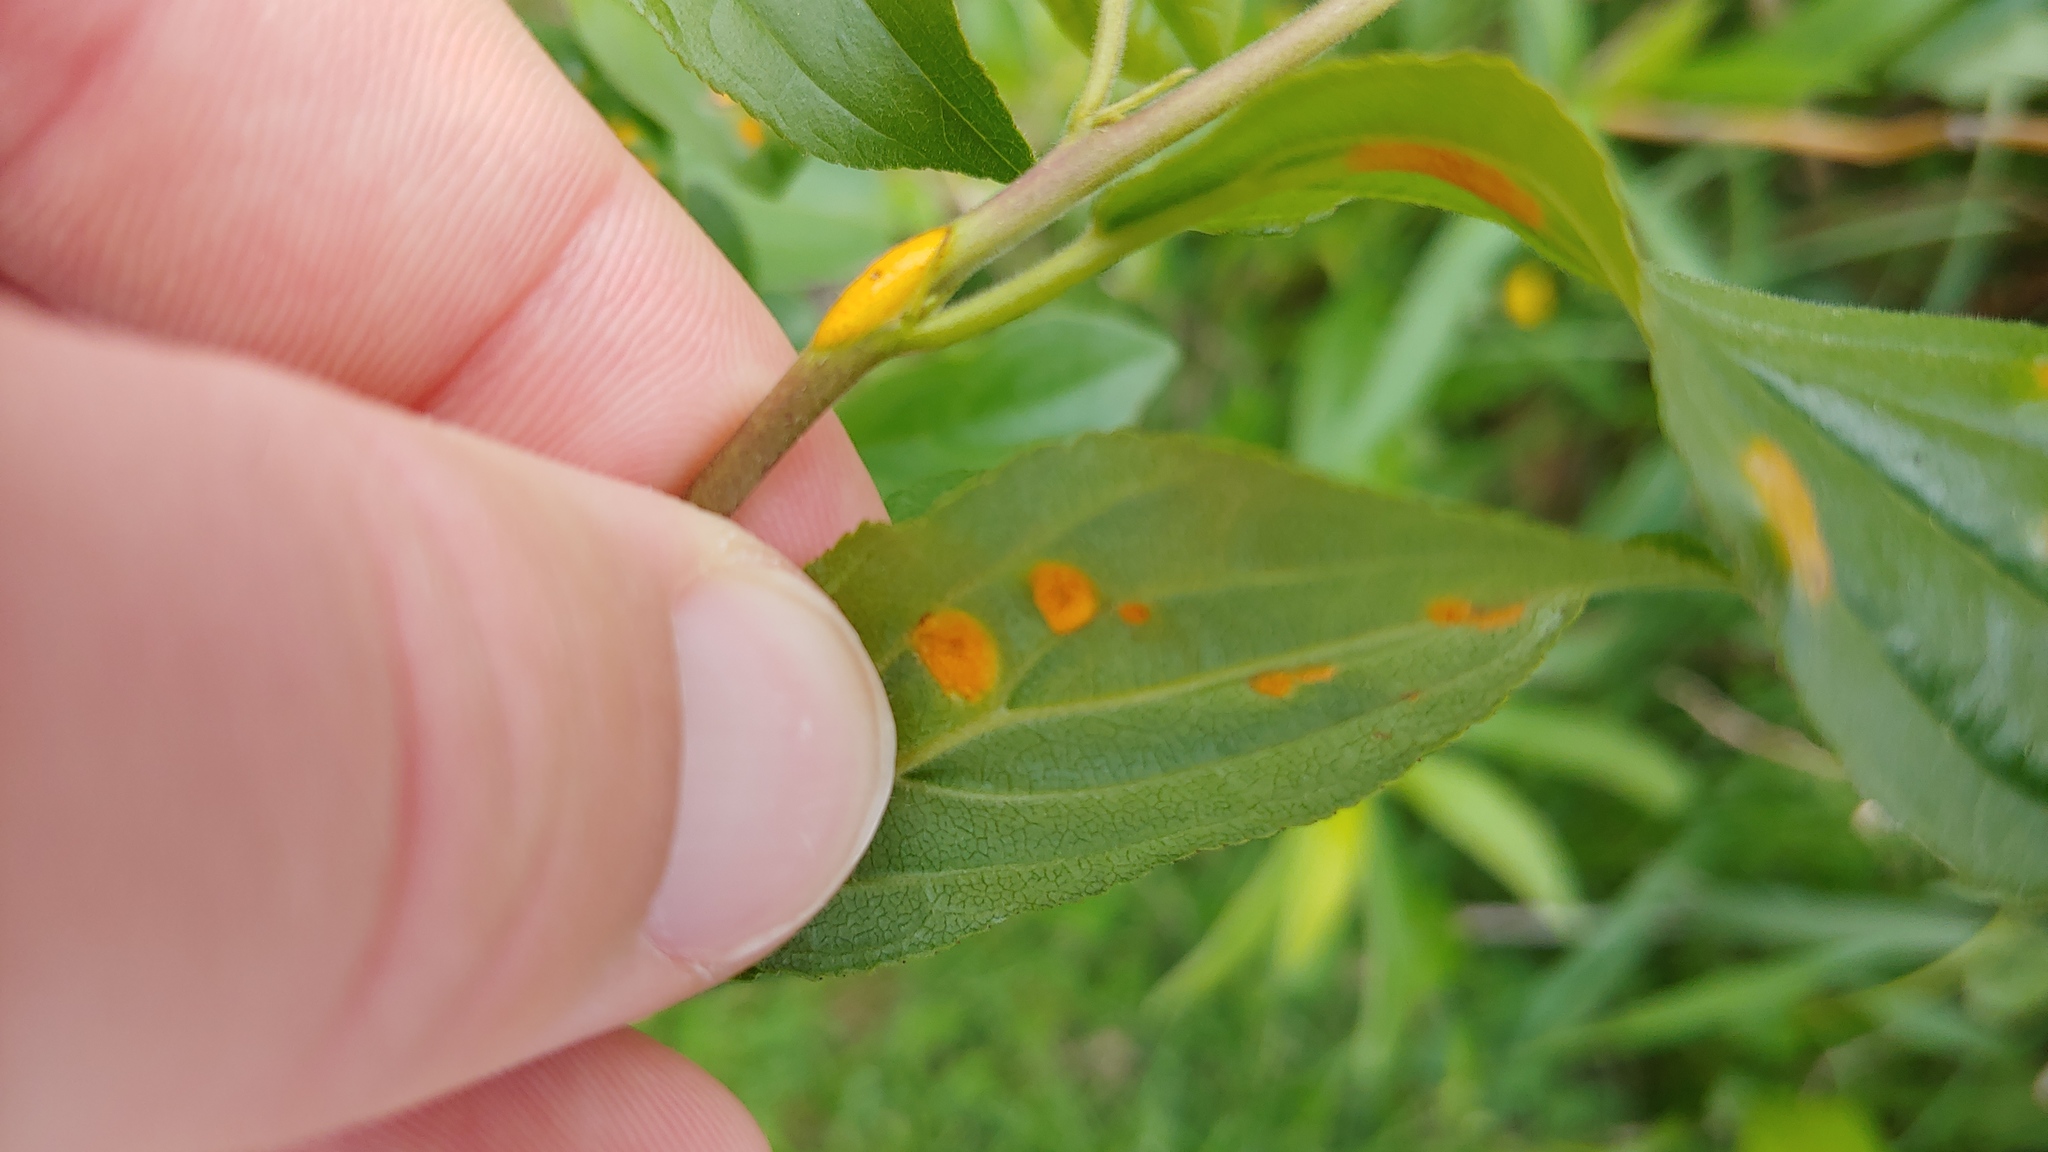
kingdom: Plantae
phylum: Tracheophyta
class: Magnoliopsida
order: Rosales
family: Rhamnaceae
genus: Rhamnus
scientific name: Rhamnus cathartica
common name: Common buckthorn
